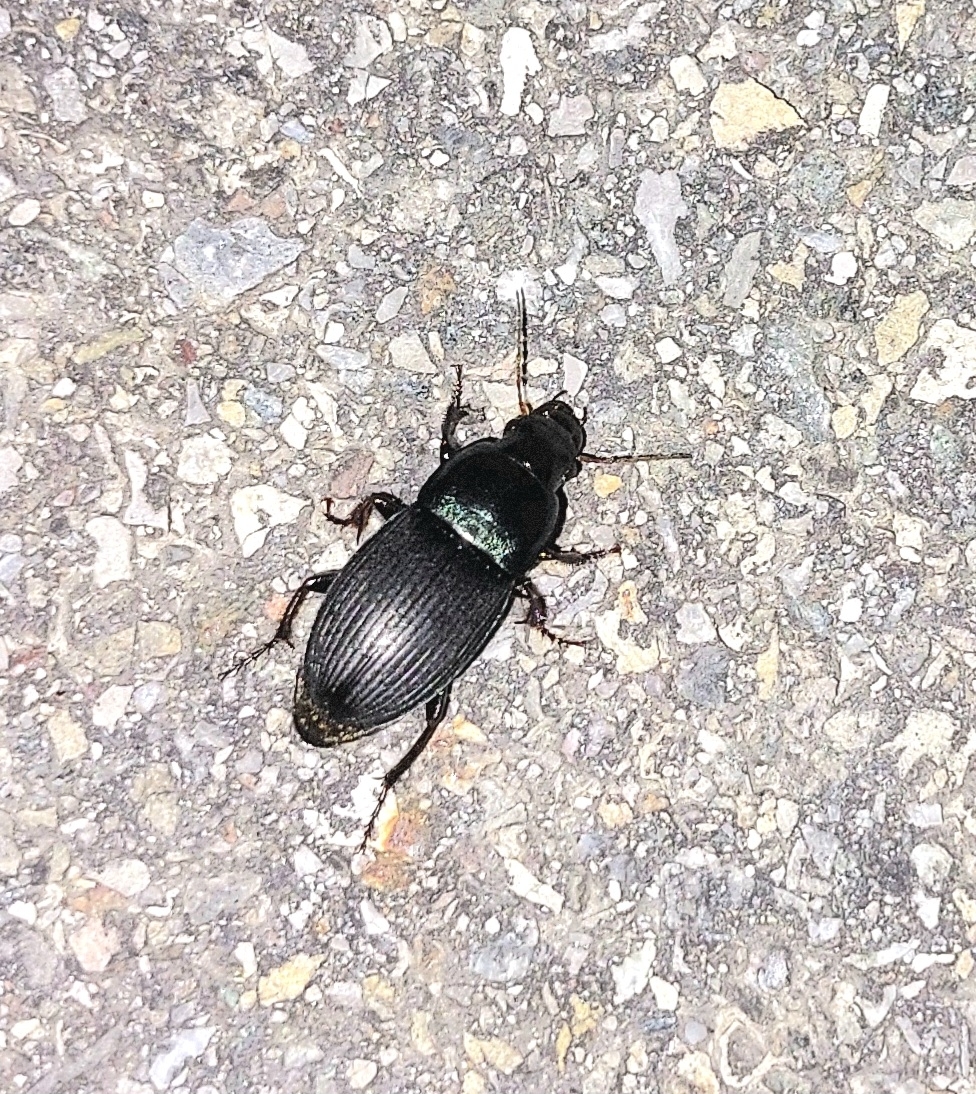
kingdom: Animalia
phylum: Arthropoda
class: Insecta
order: Coleoptera
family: Carabidae
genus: Harpalus
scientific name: Harpalus dimidiatus
